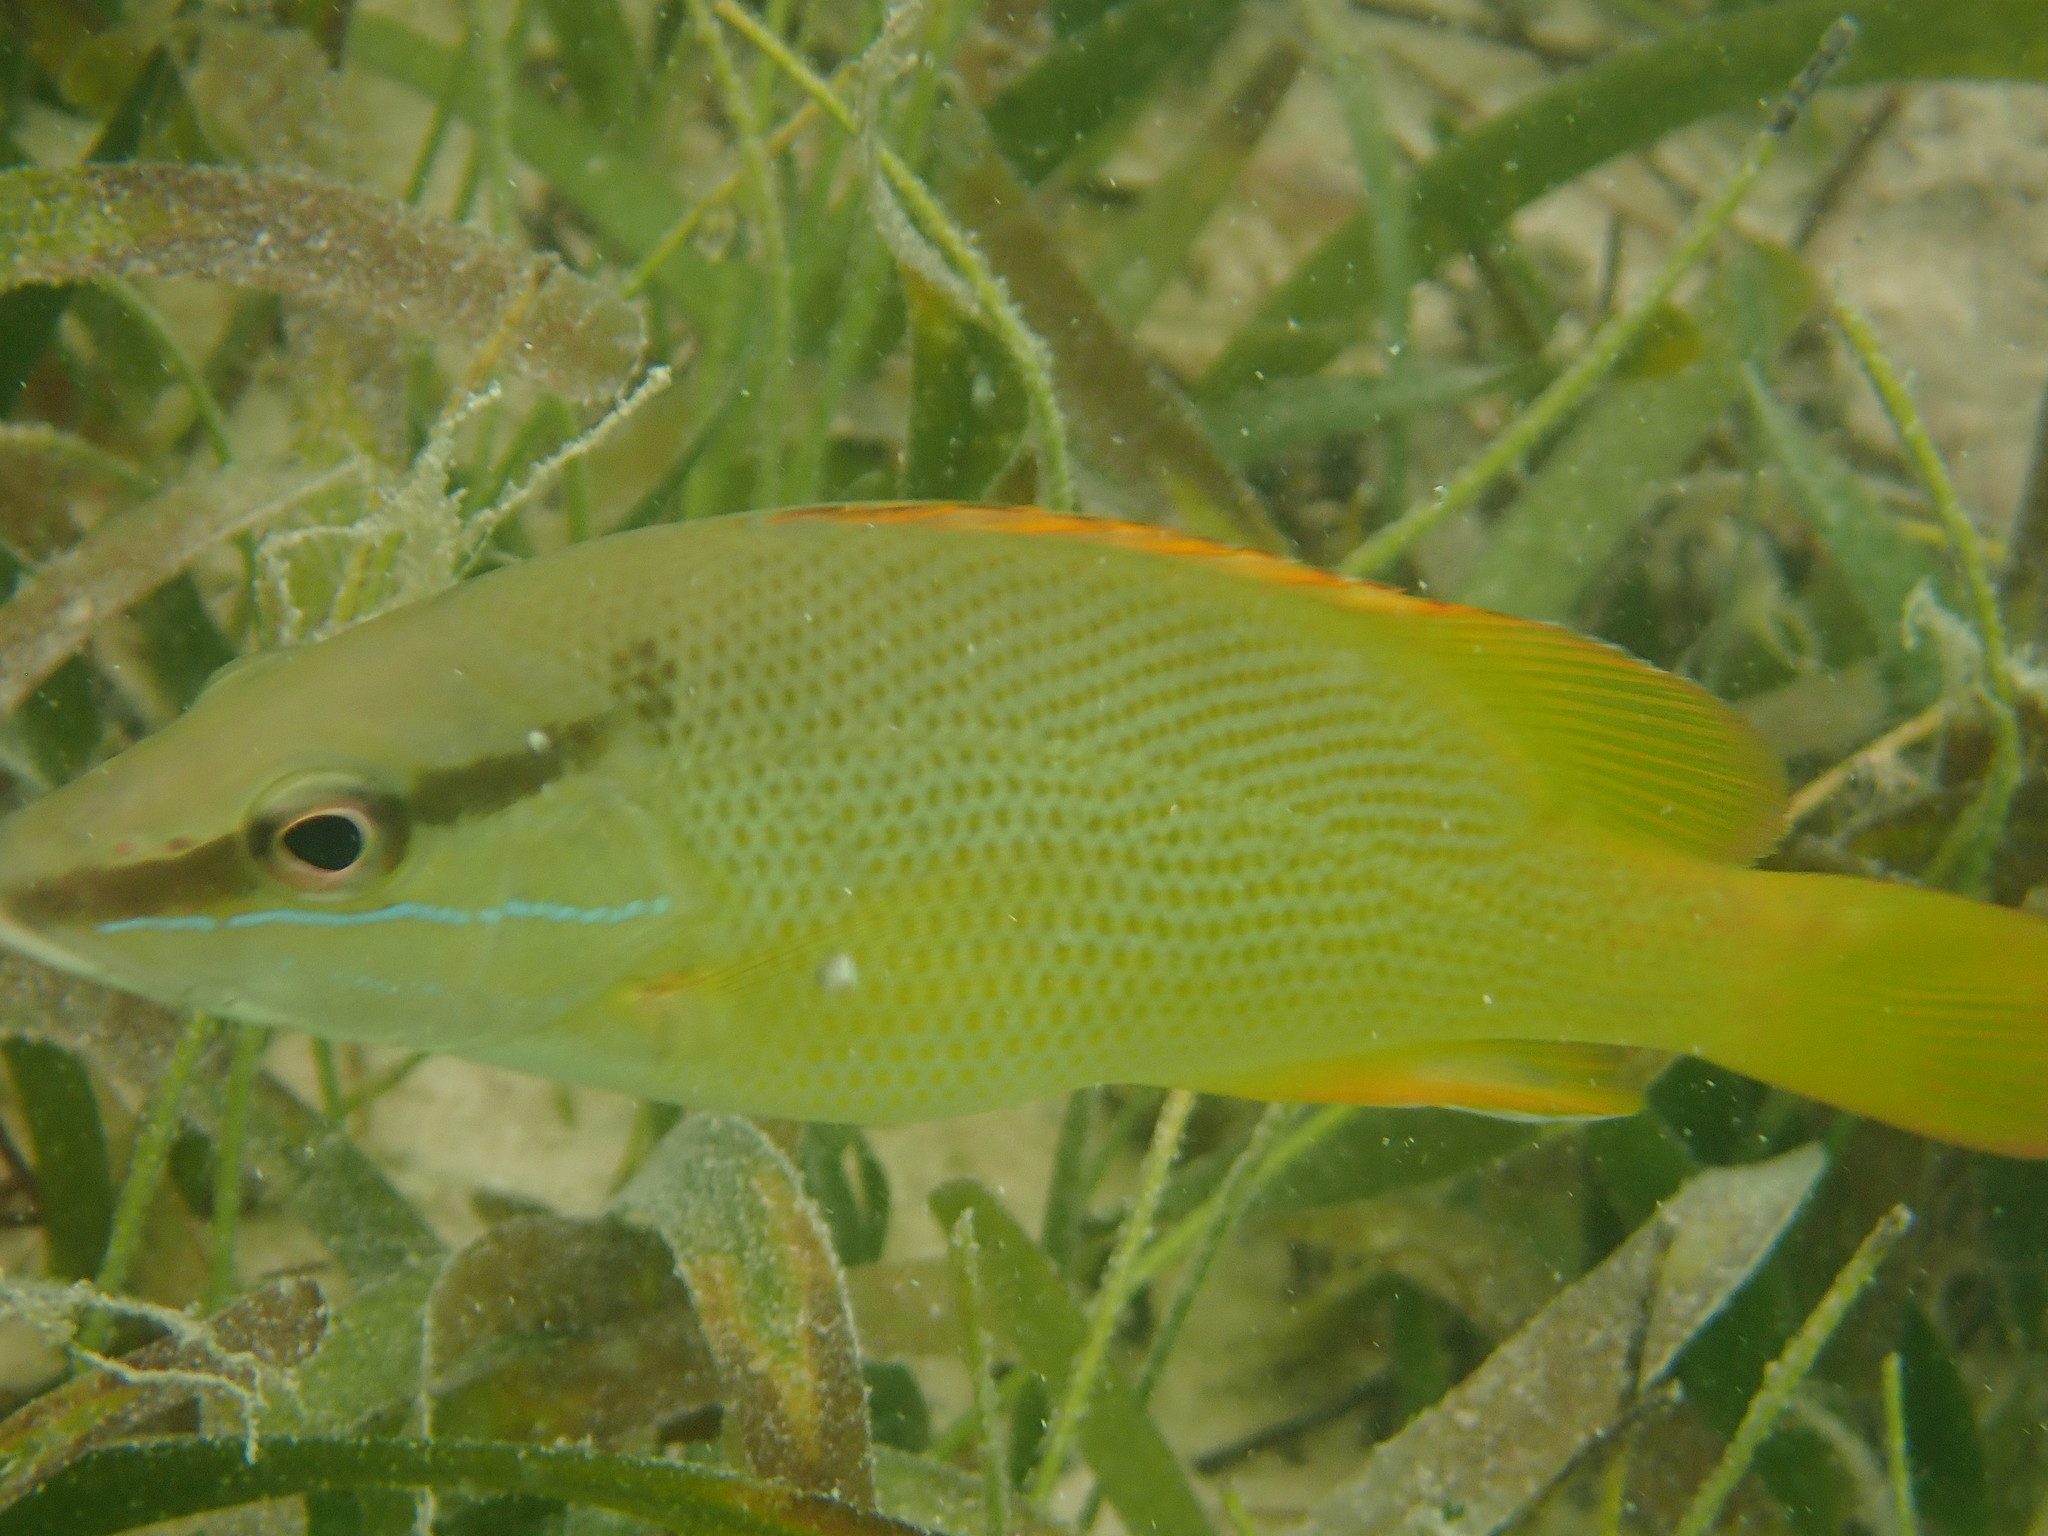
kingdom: Animalia
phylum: Chordata
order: Perciformes
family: Lutjanidae
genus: Lutjanus
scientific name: Lutjanus griseus
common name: Gray snapper
